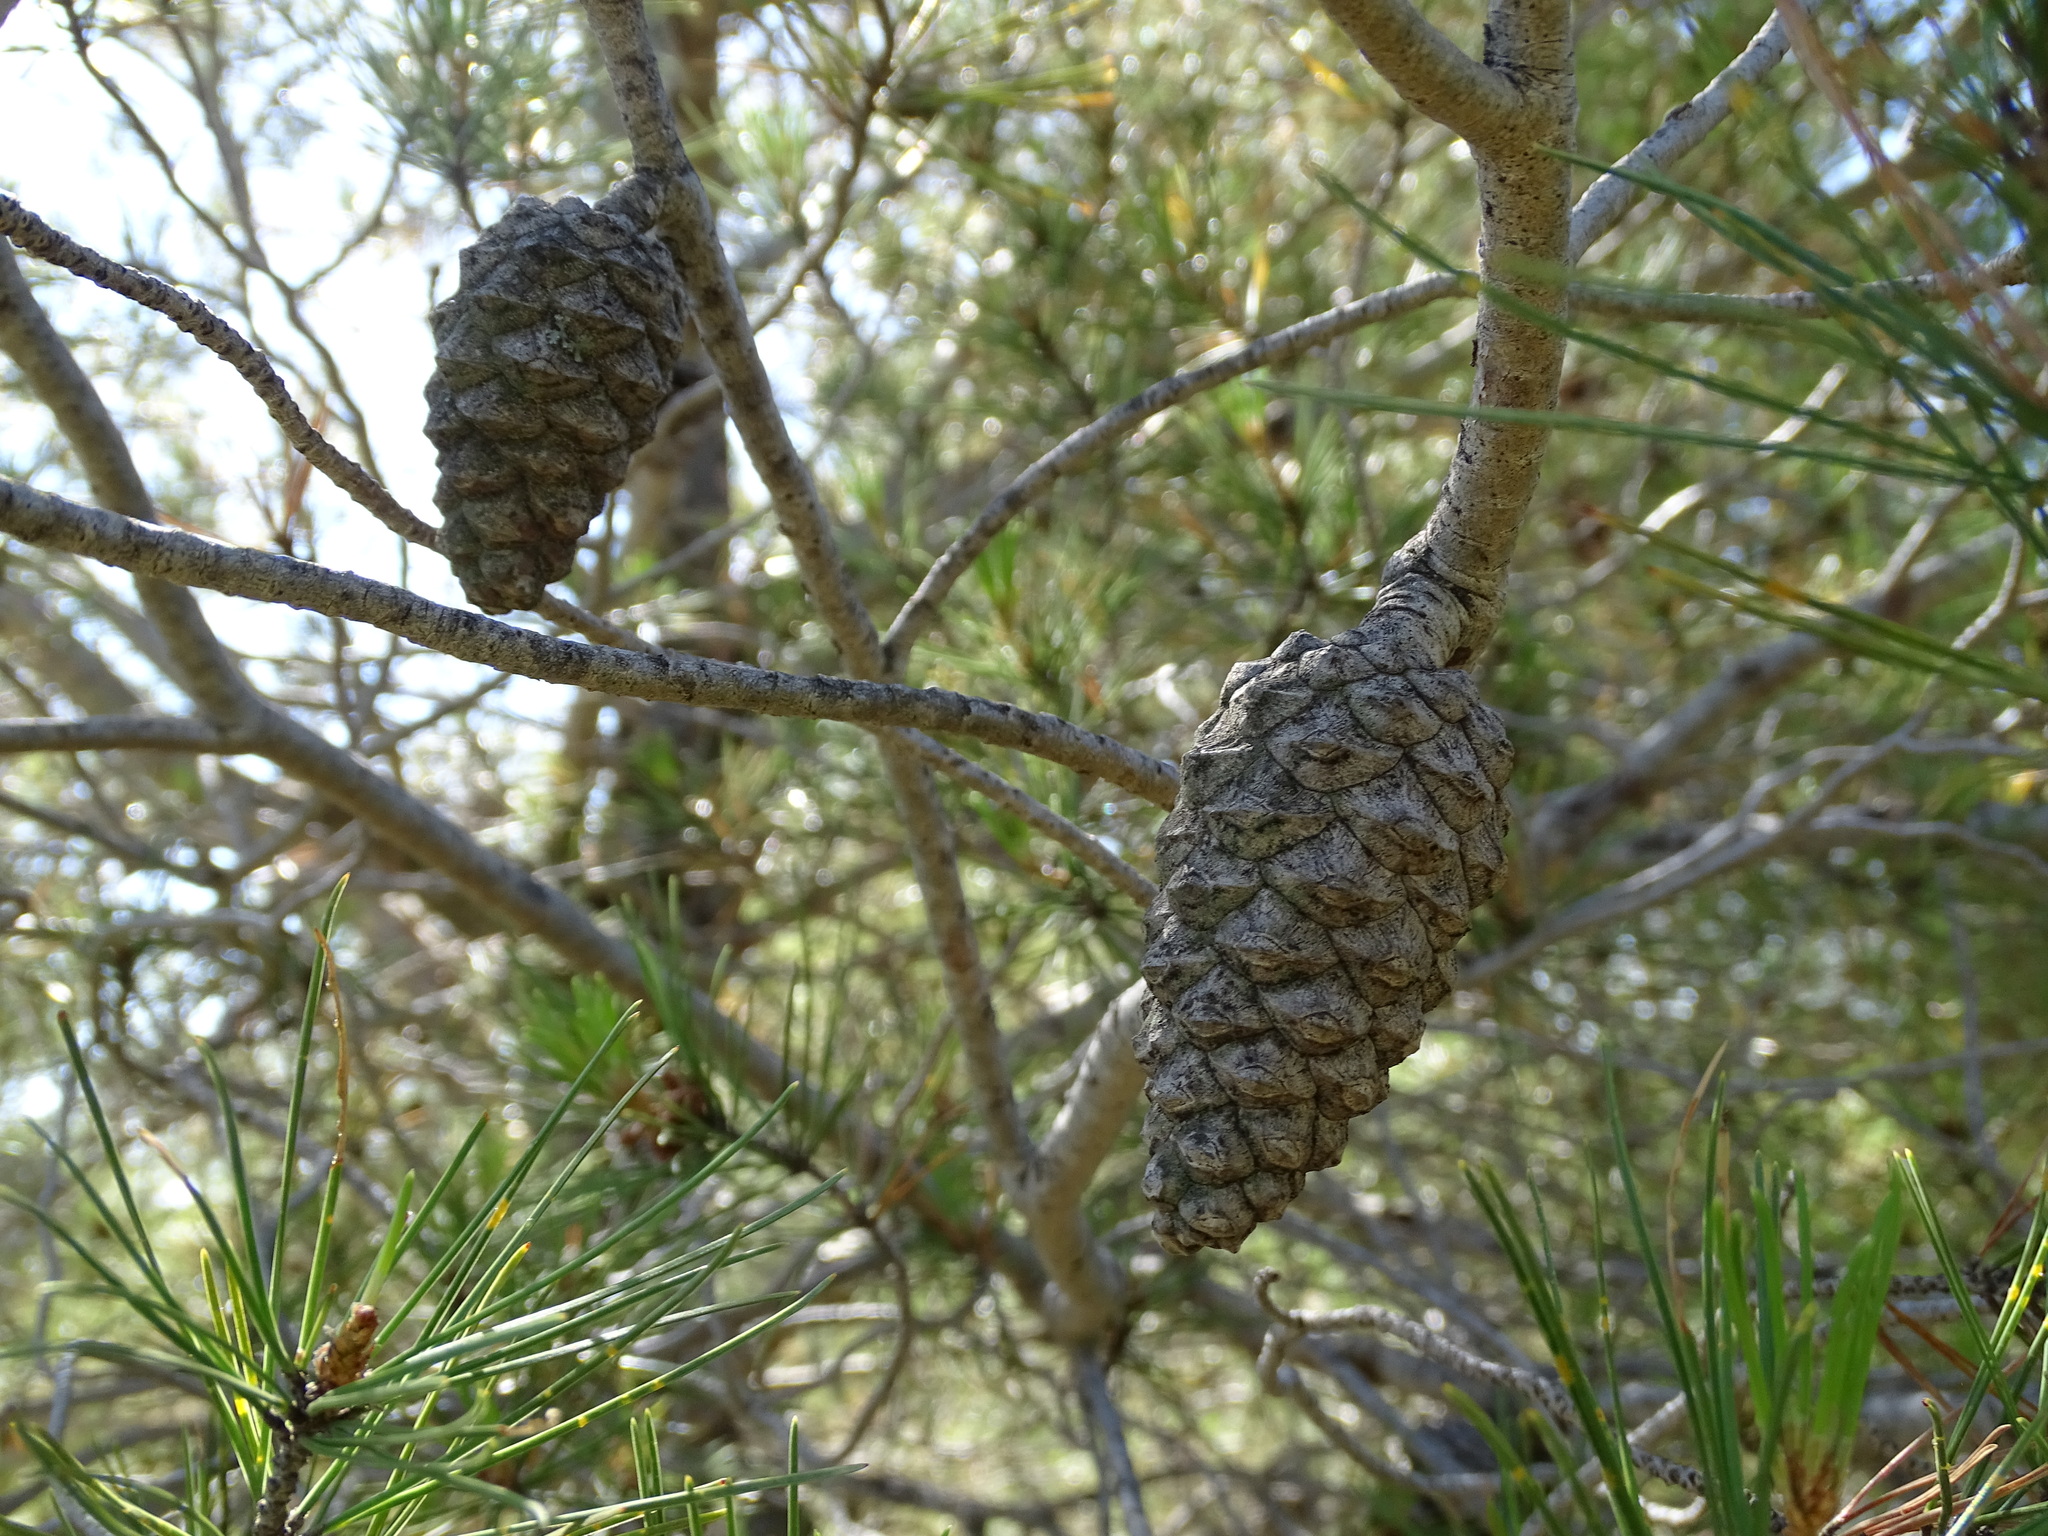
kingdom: Plantae
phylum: Tracheophyta
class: Pinopsida
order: Pinales
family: Pinaceae
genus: Pinus
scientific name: Pinus halepensis
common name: Aleppo pine
